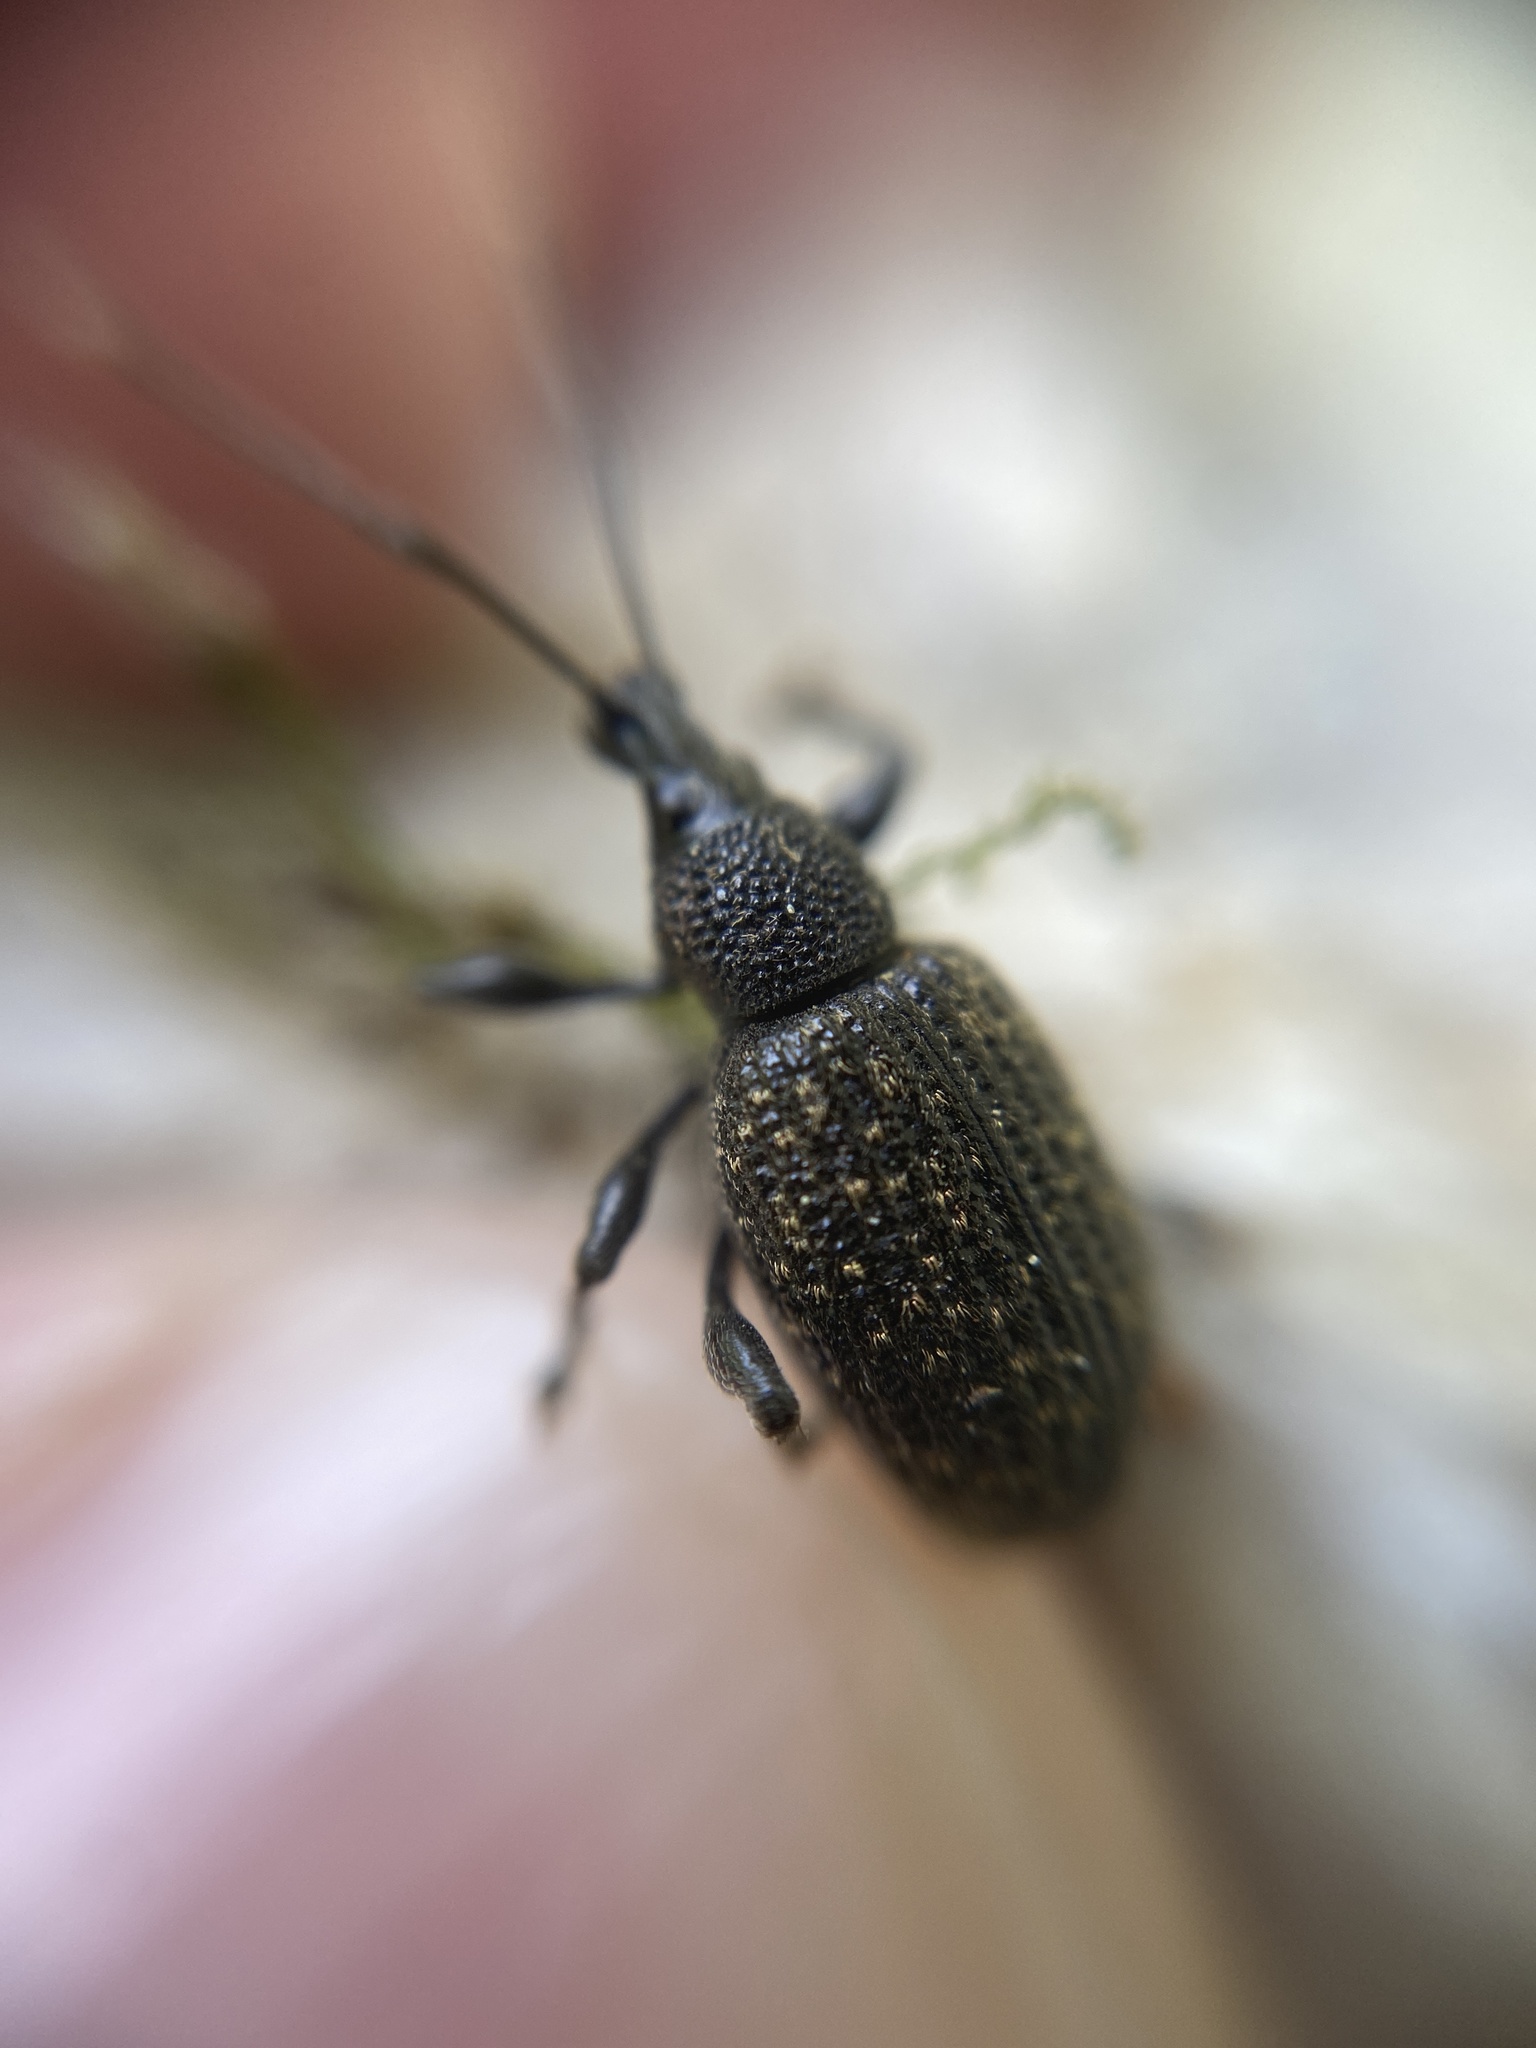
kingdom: Animalia
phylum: Arthropoda
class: Insecta
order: Coleoptera
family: Curculionidae
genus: Otiorhynchus
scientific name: Otiorhynchus sulcatus
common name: Black vine weevil
